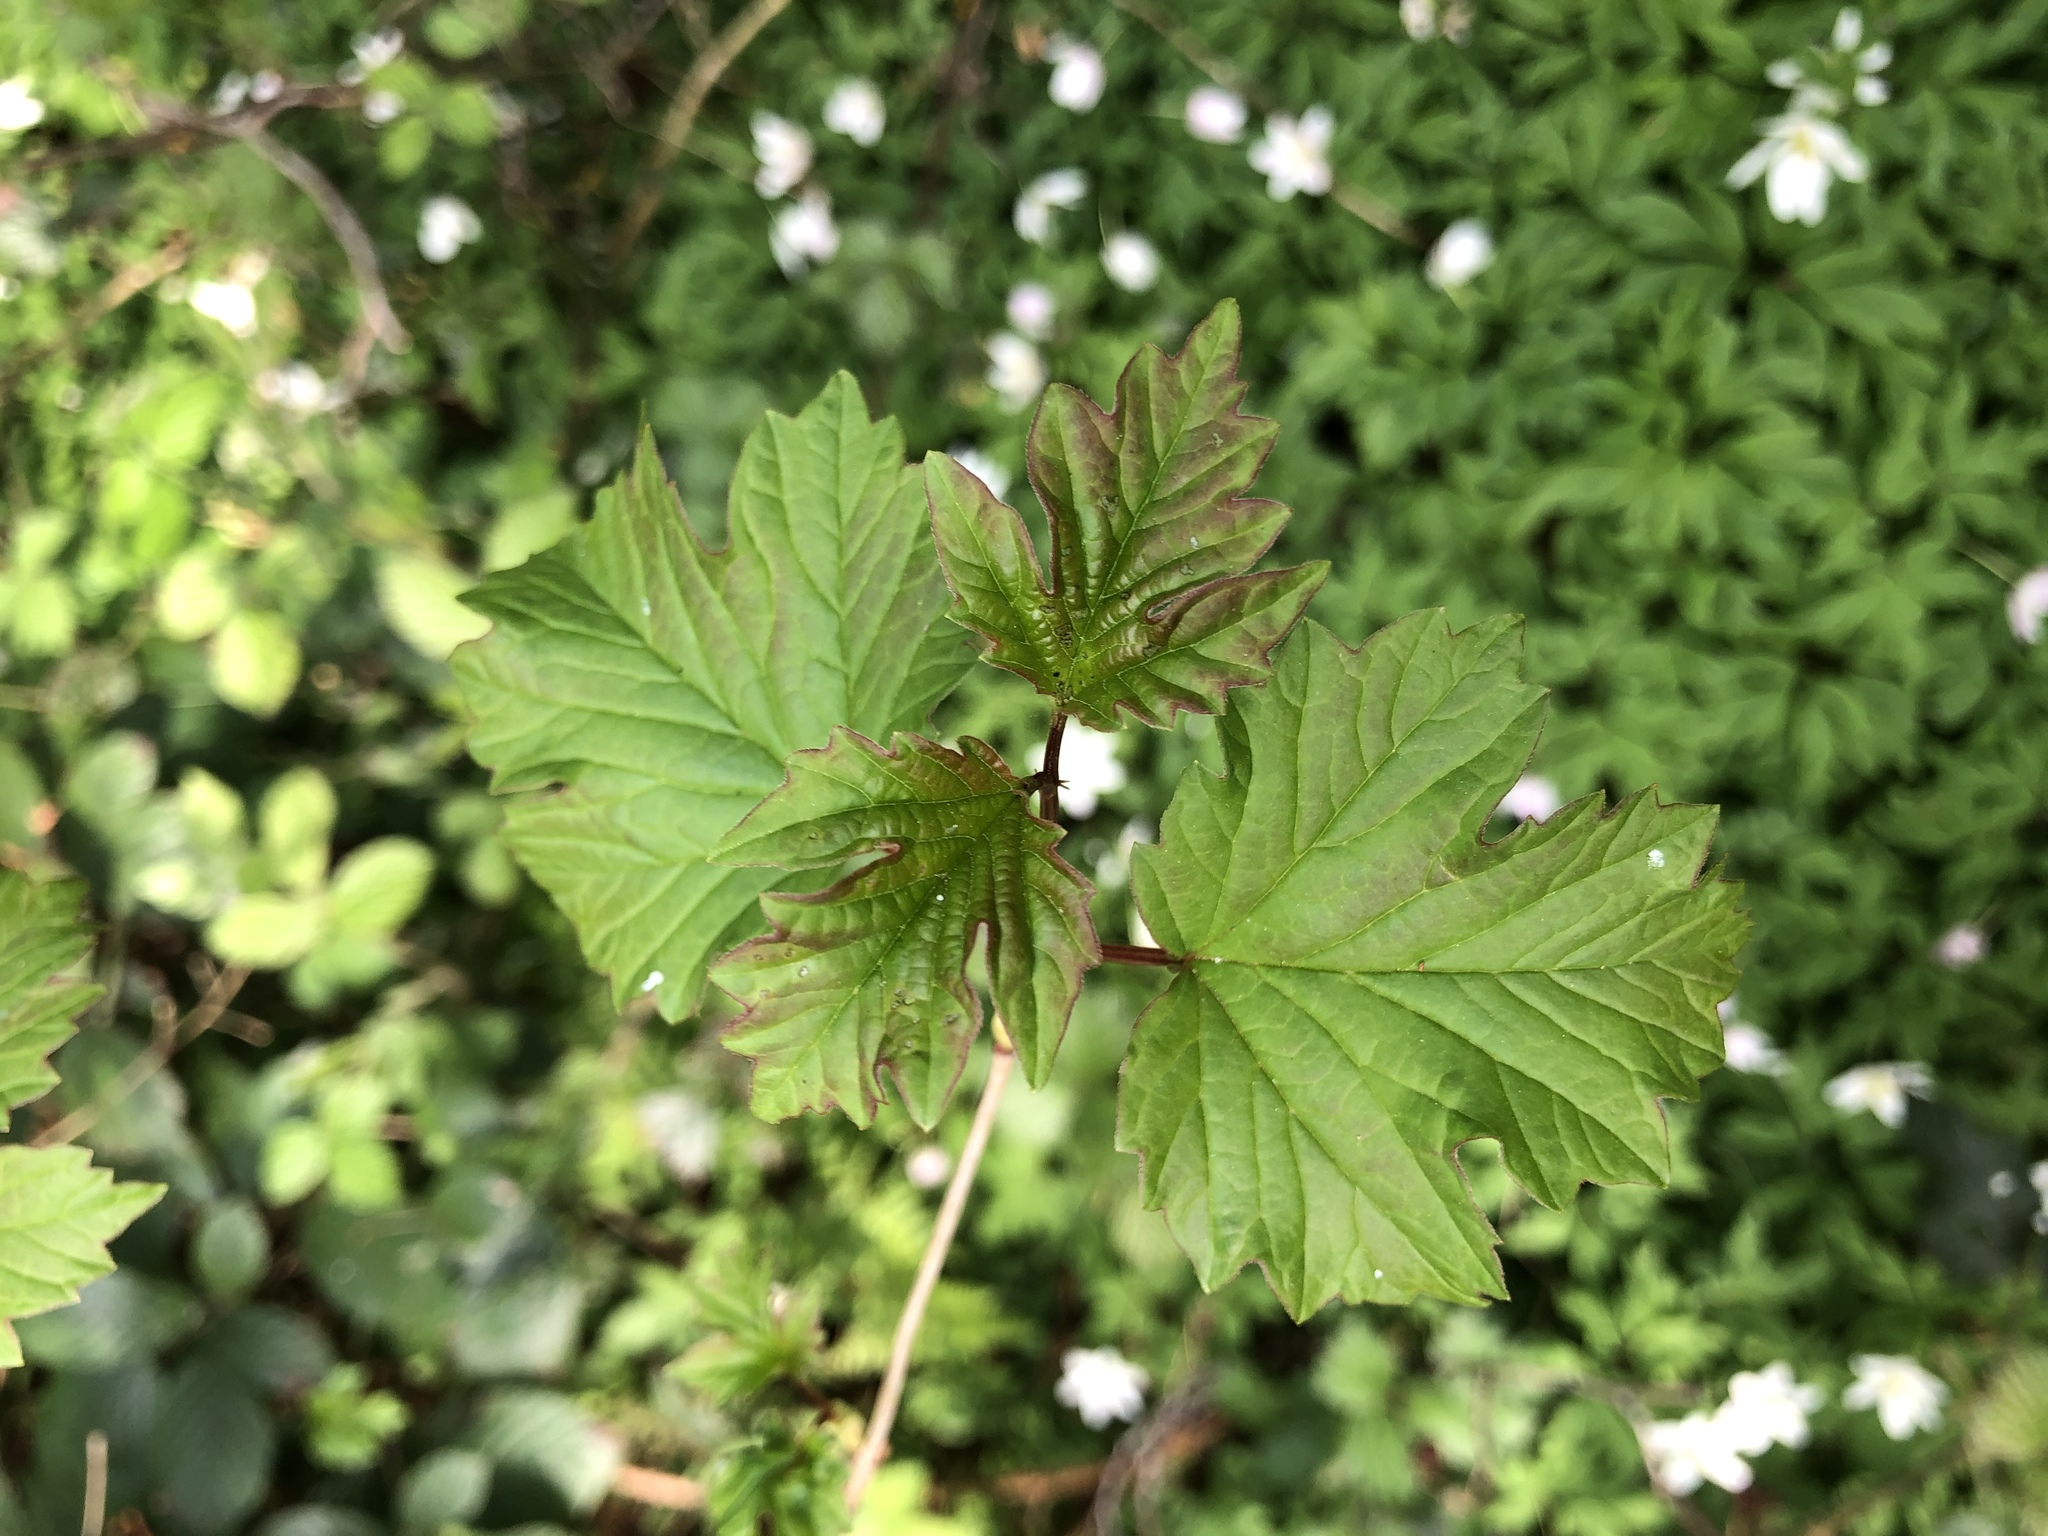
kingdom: Plantae
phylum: Tracheophyta
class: Magnoliopsida
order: Dipsacales
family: Viburnaceae
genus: Viburnum
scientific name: Viburnum opulus
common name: Guelder-rose
